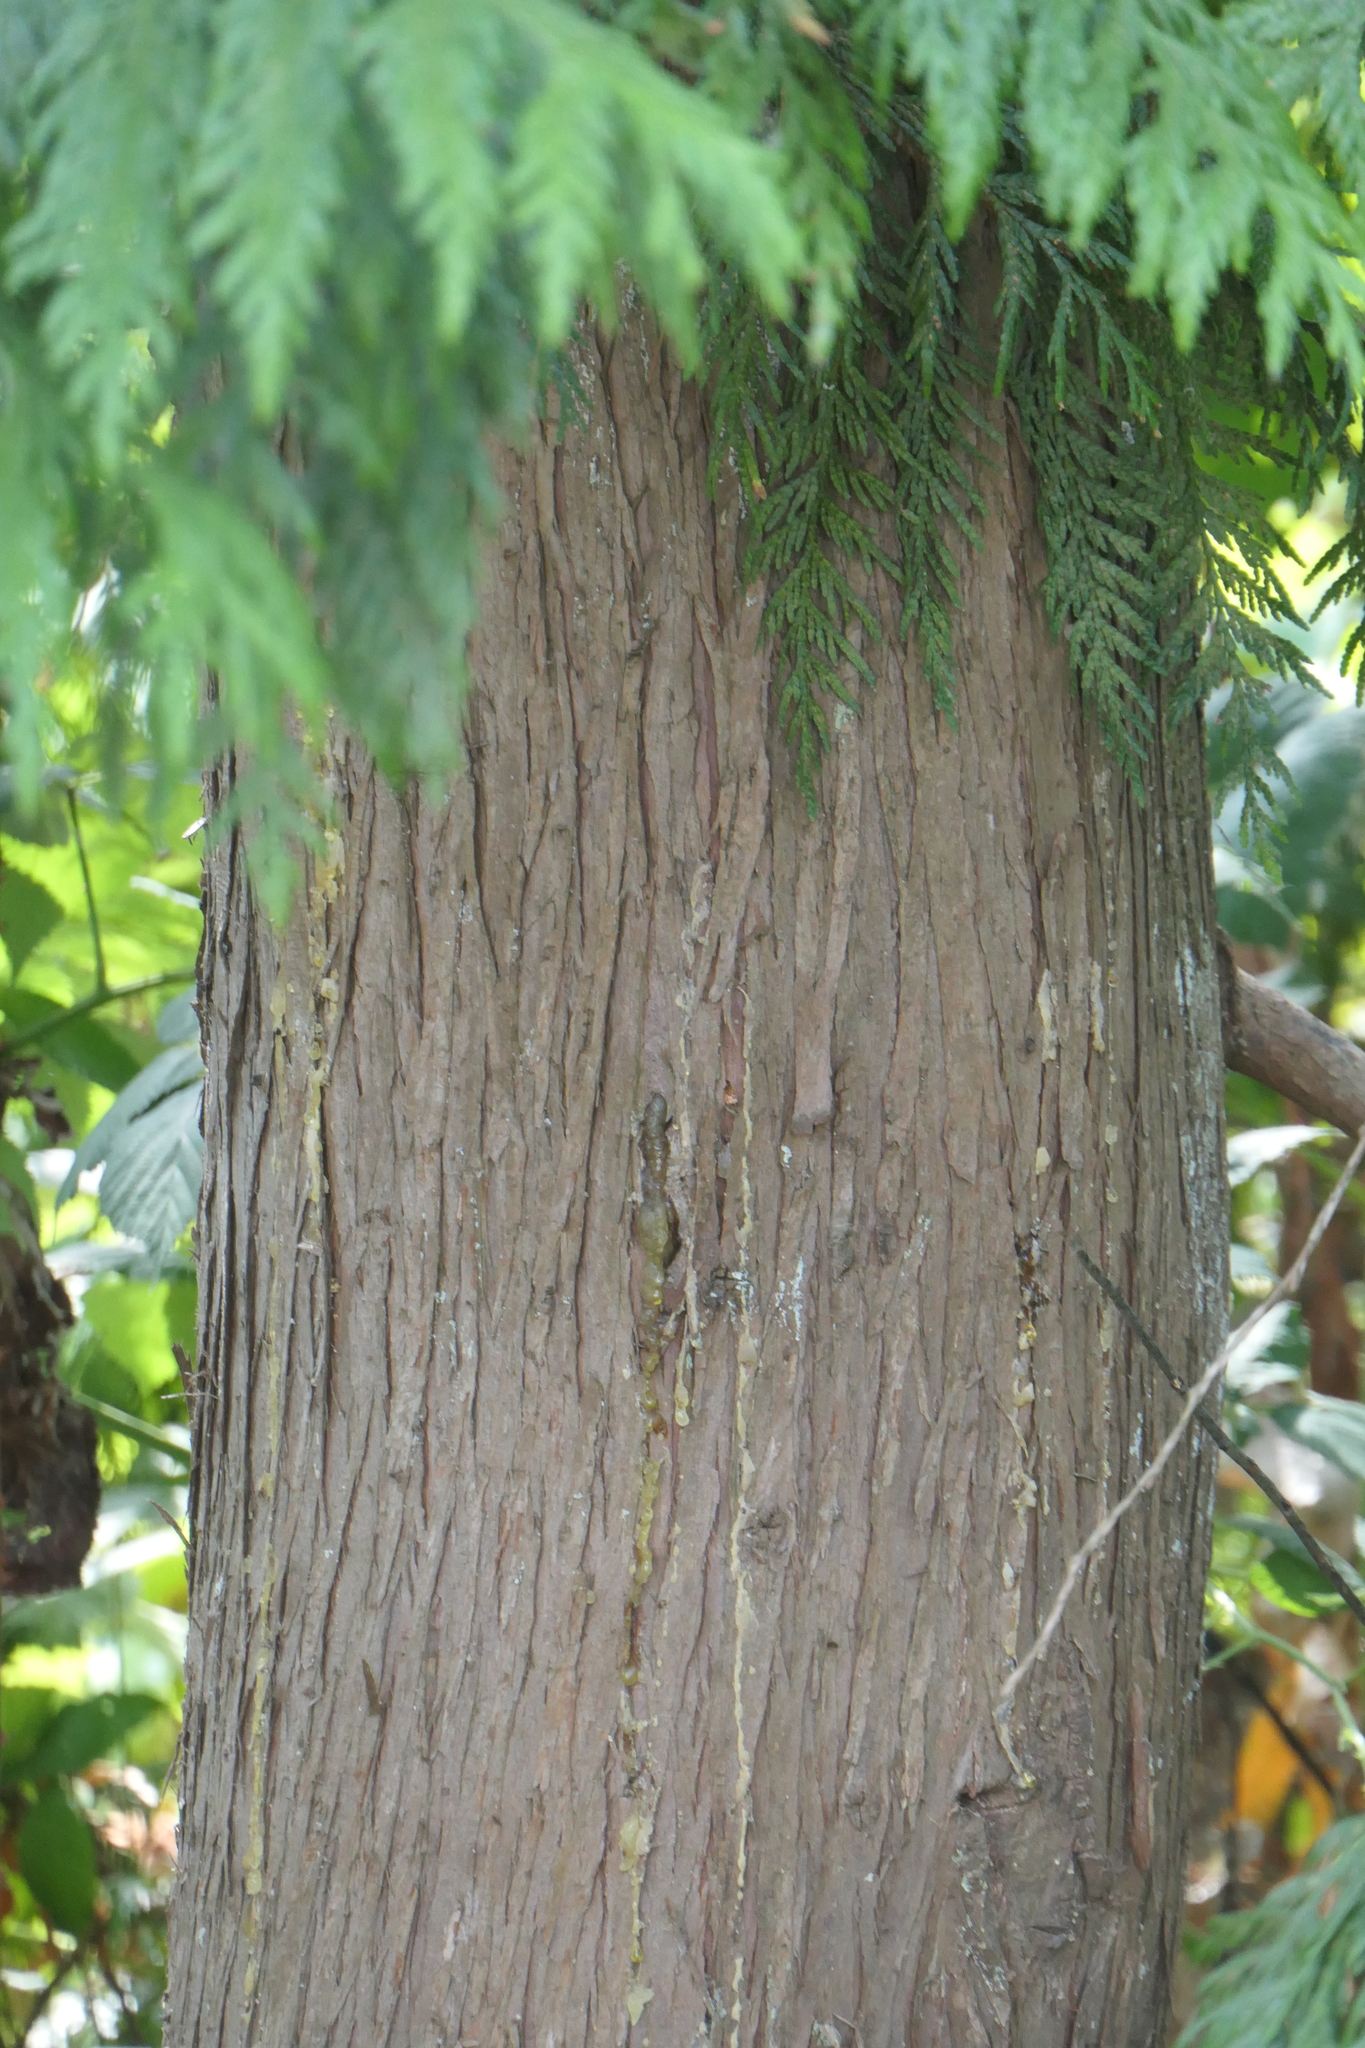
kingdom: Plantae
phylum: Tracheophyta
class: Pinopsida
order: Pinales
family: Cupressaceae
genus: Thuja
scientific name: Thuja plicata
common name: Western red-cedar
